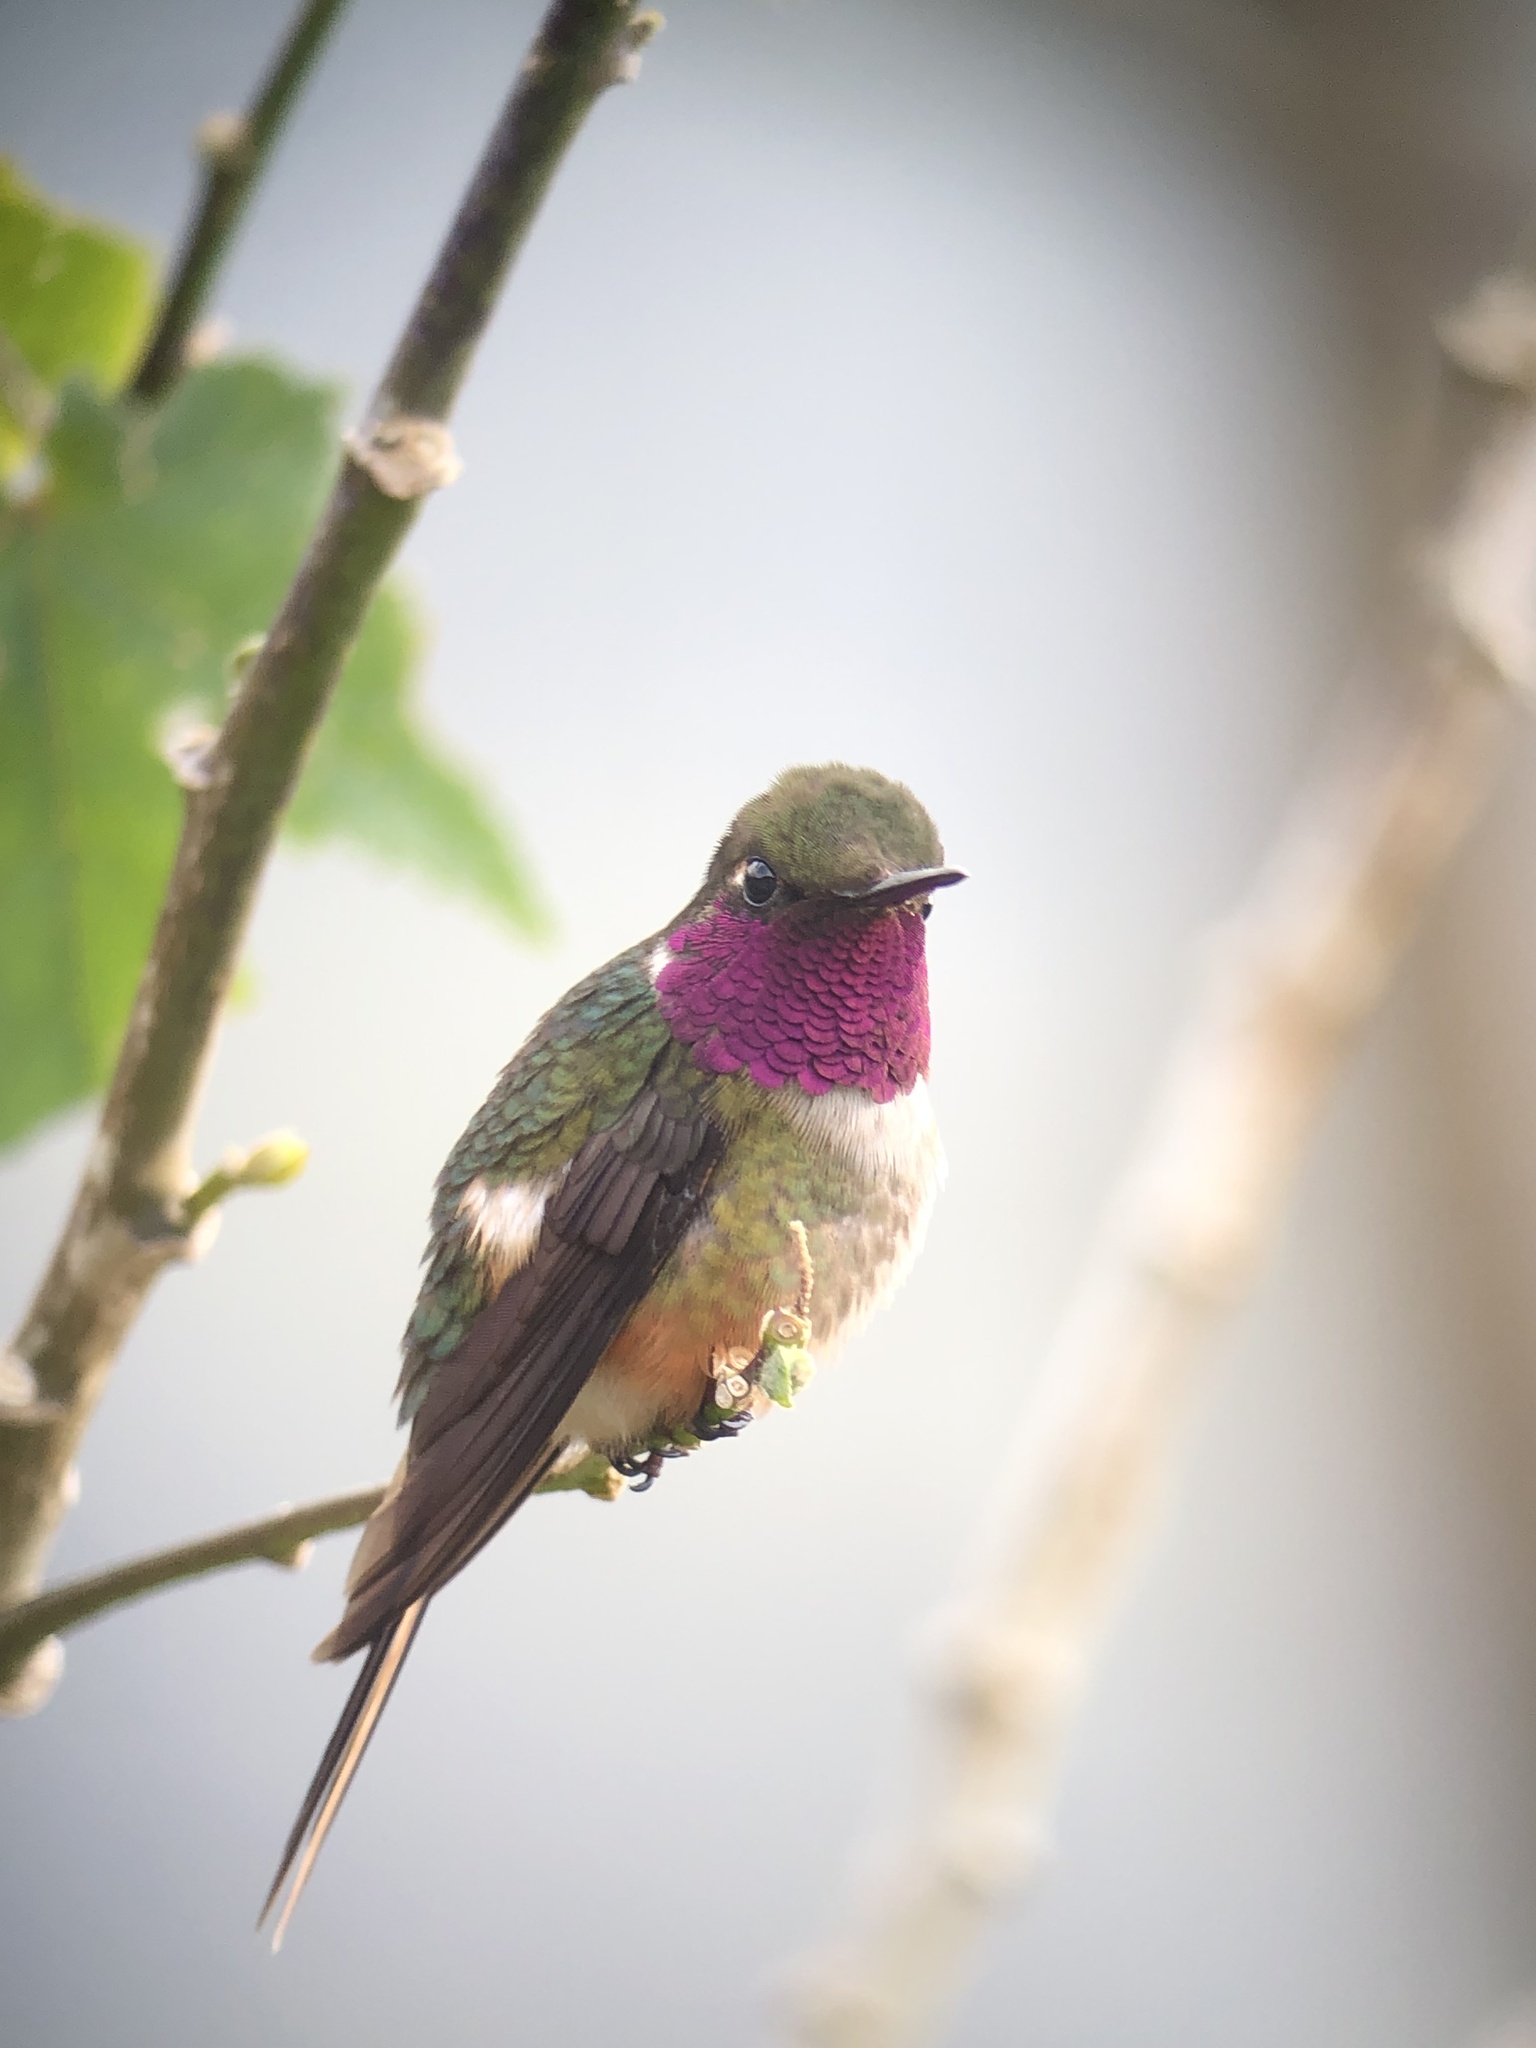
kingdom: Animalia
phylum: Chordata
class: Aves
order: Apodiformes
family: Trochilidae
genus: Calliphlox
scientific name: Calliphlox bryantae
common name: Magenta-throated woodstar
